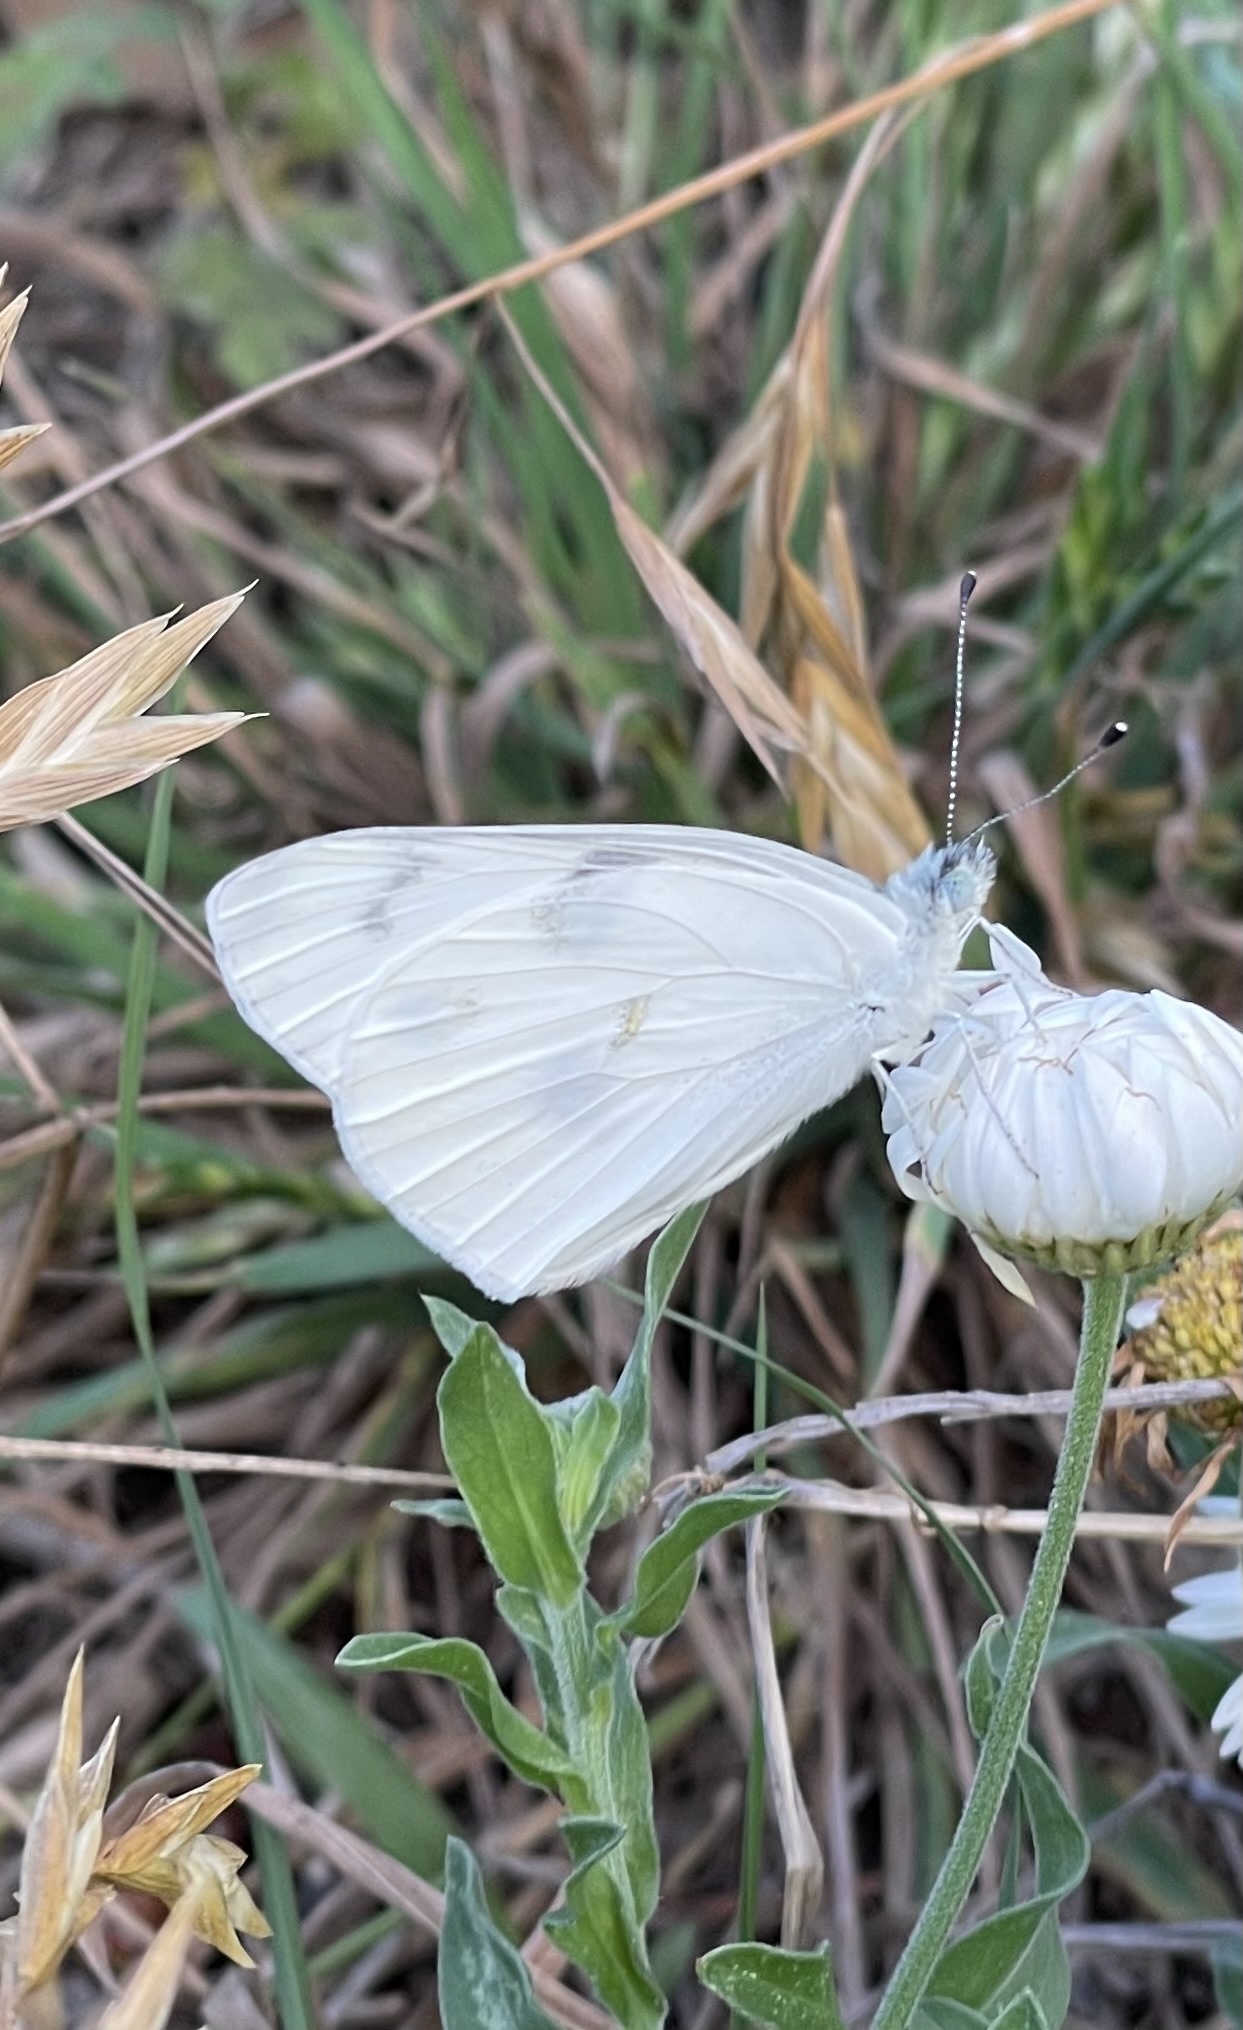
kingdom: Animalia
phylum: Arthropoda
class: Insecta
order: Lepidoptera
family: Pieridae
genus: Pontia
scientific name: Pontia protodice
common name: Checkered white
